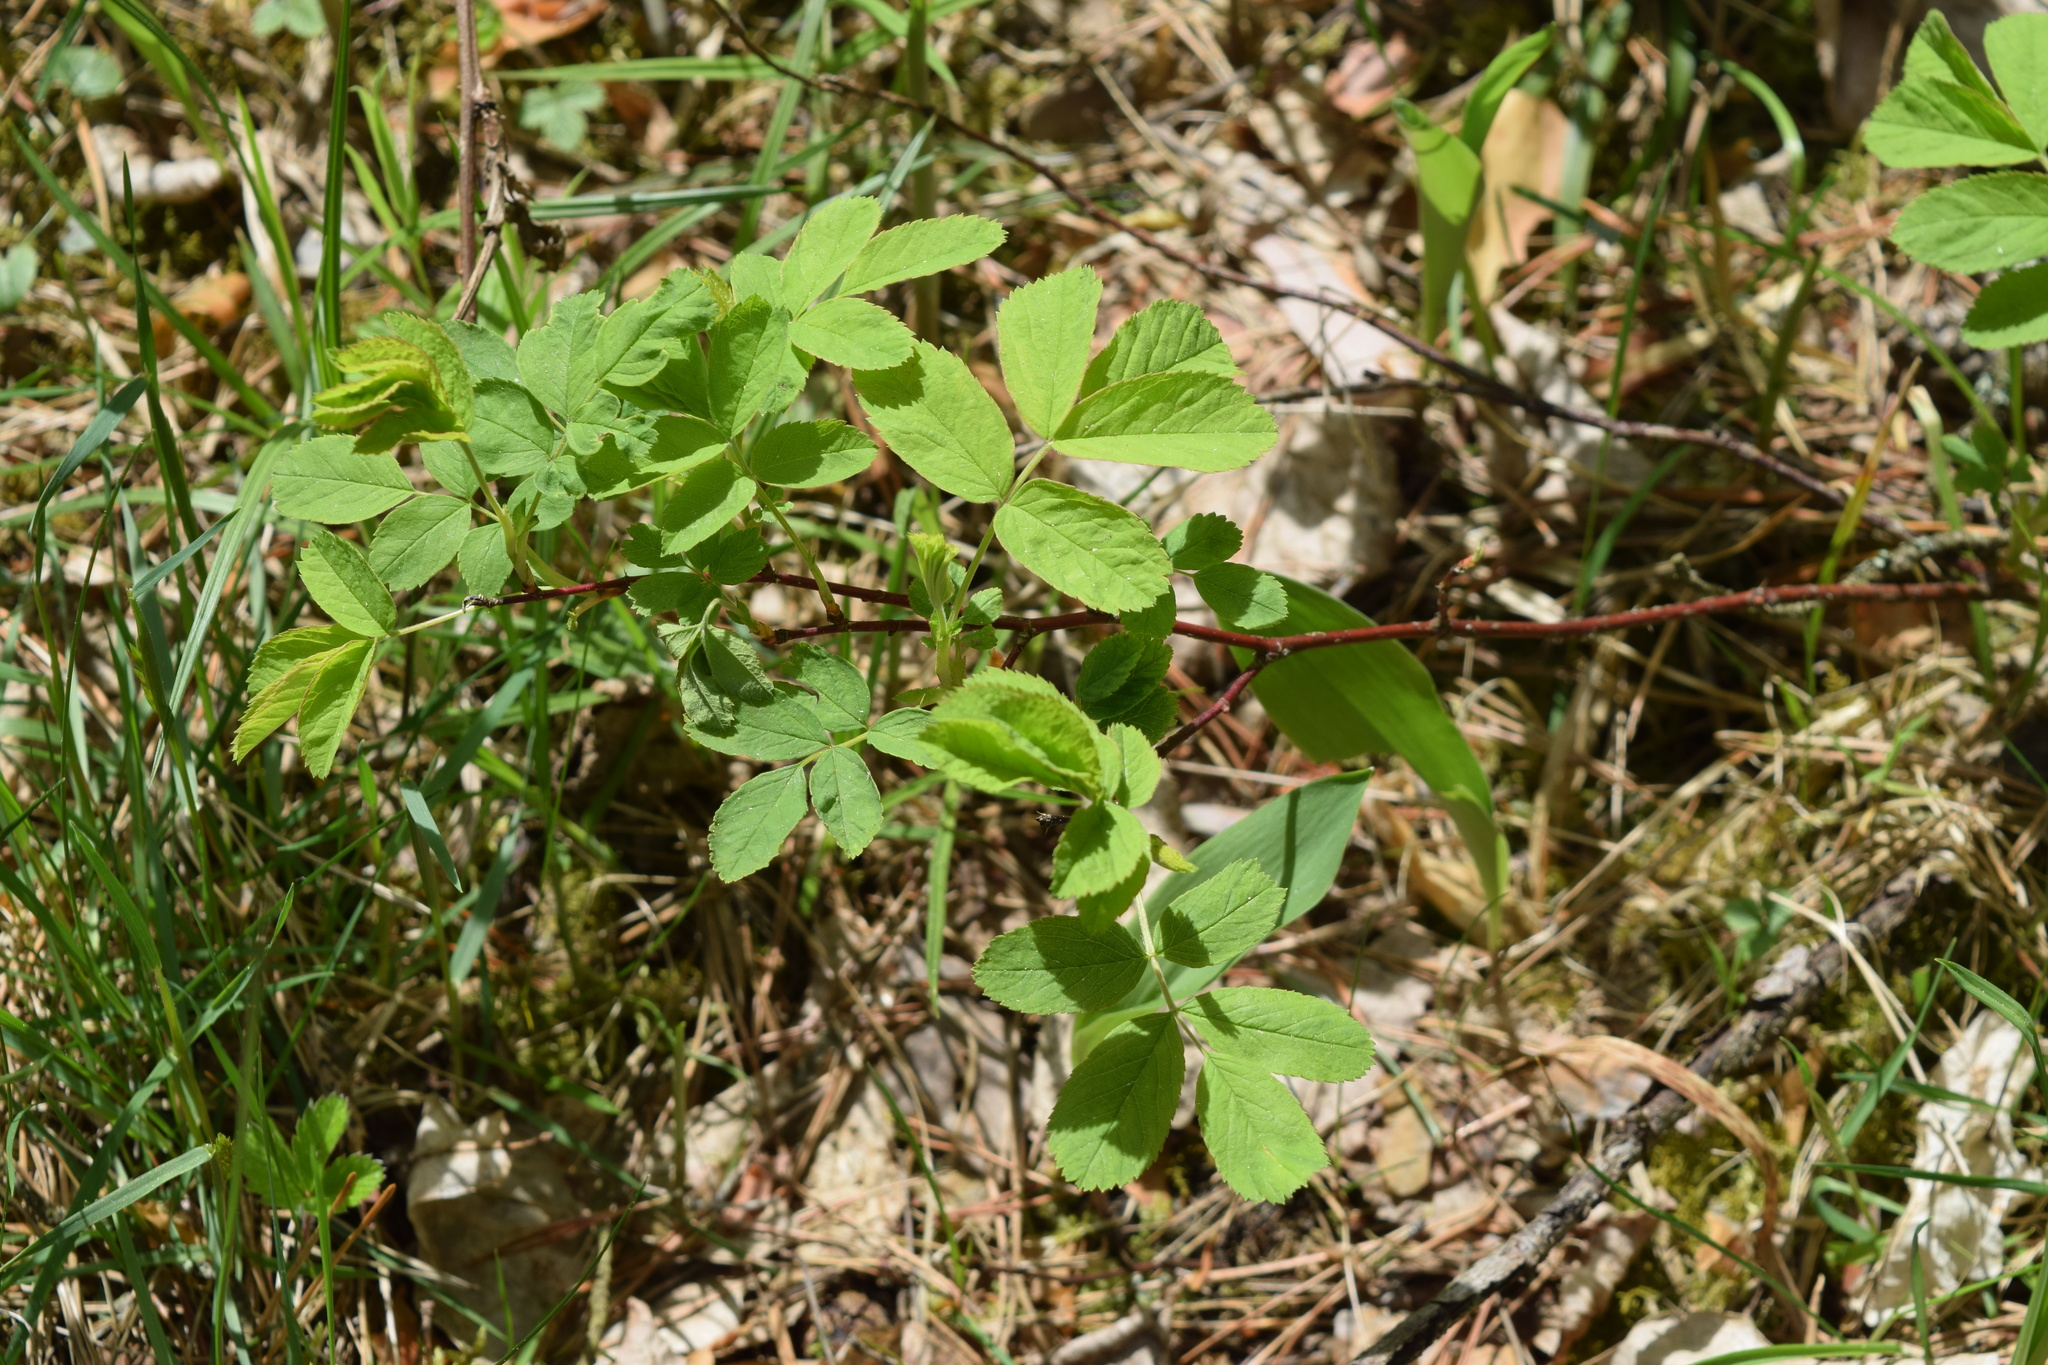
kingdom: Plantae
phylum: Tracheophyta
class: Magnoliopsida
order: Rosales
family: Rosaceae
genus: Rosa
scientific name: Rosa
